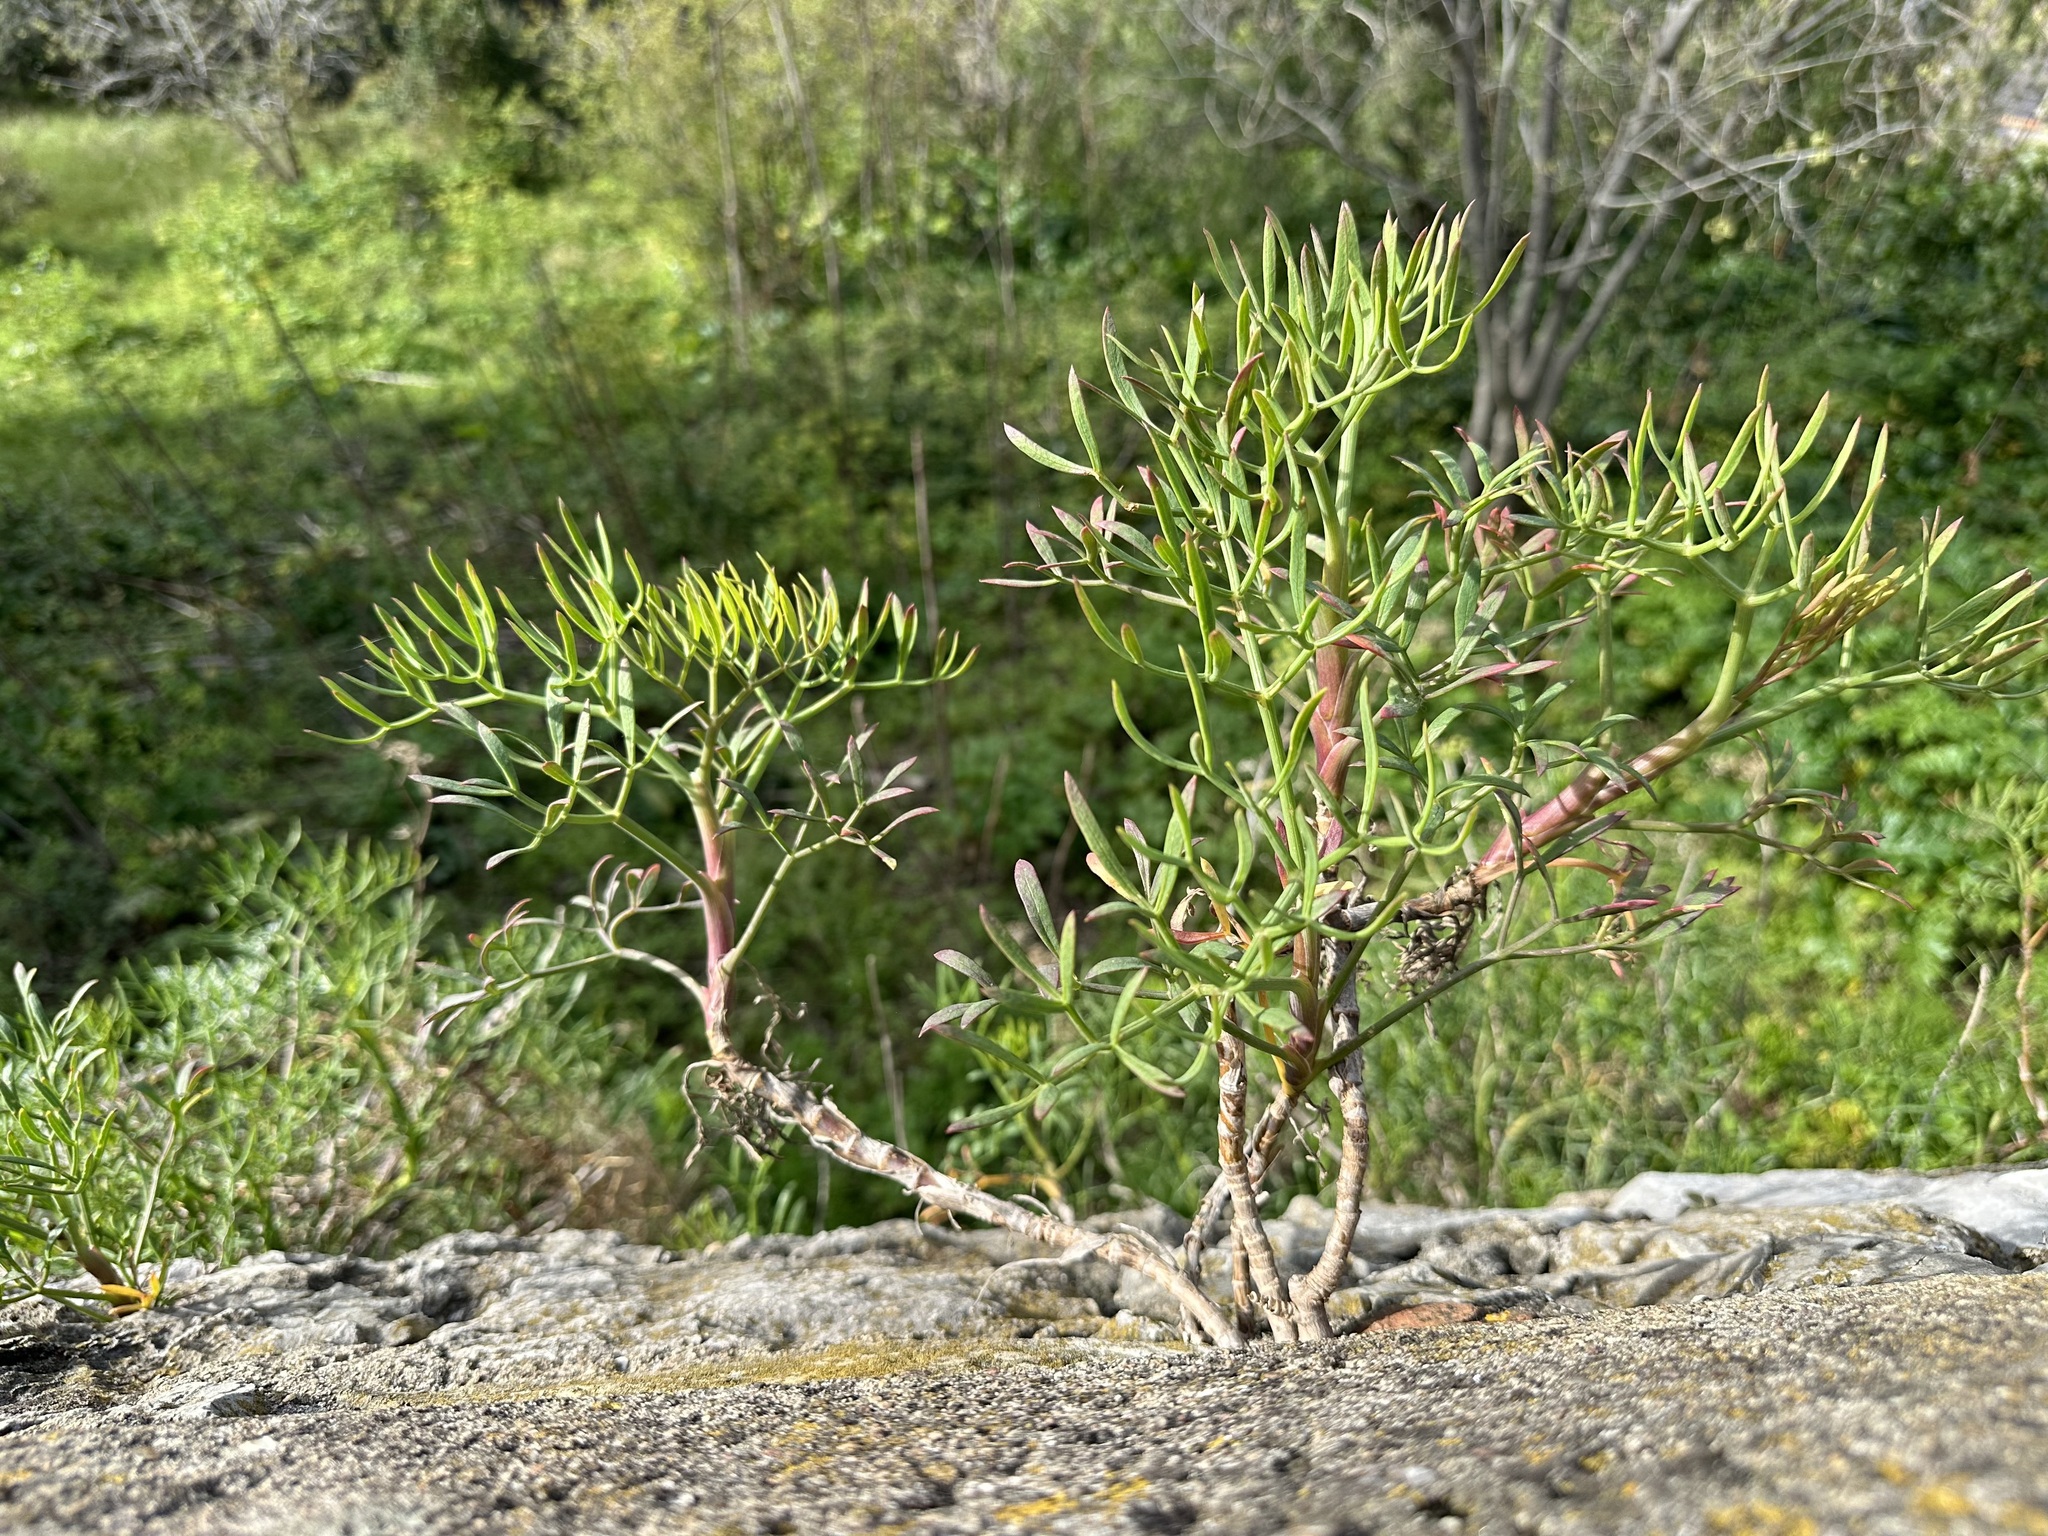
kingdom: Plantae
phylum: Tracheophyta
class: Magnoliopsida
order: Apiales
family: Apiaceae
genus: Crithmum
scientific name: Crithmum maritimum
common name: Rock samphire
